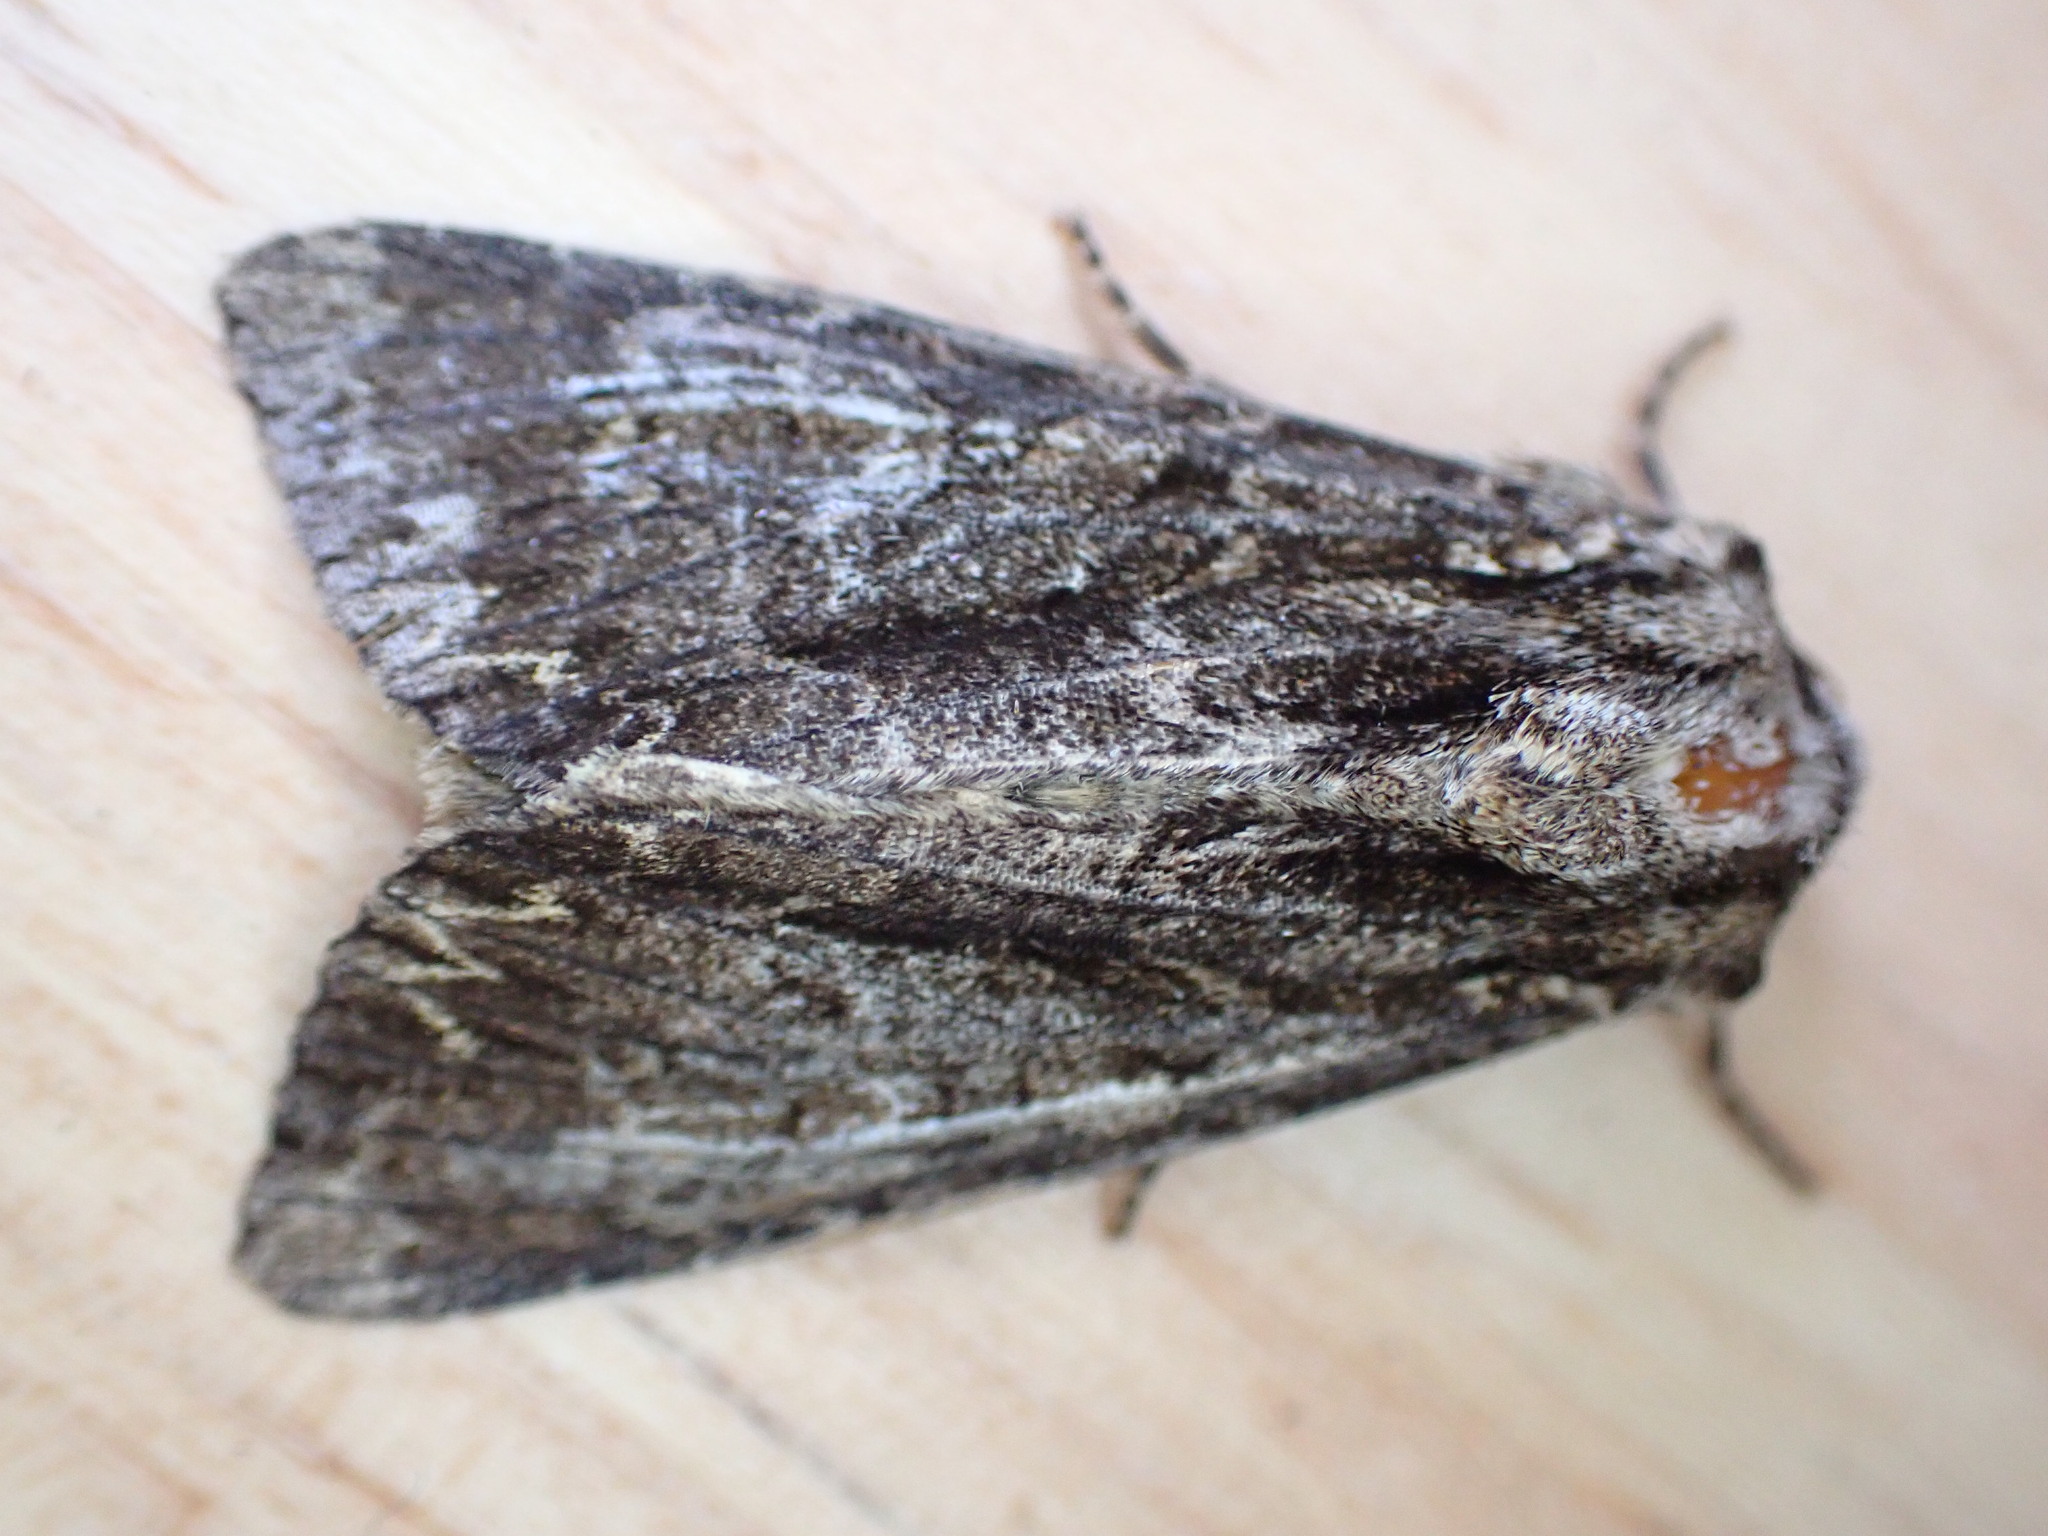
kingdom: Animalia
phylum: Arthropoda
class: Insecta
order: Lepidoptera
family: Noctuidae
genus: Apamea
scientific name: Apamea monoglypha
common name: Dark arches
